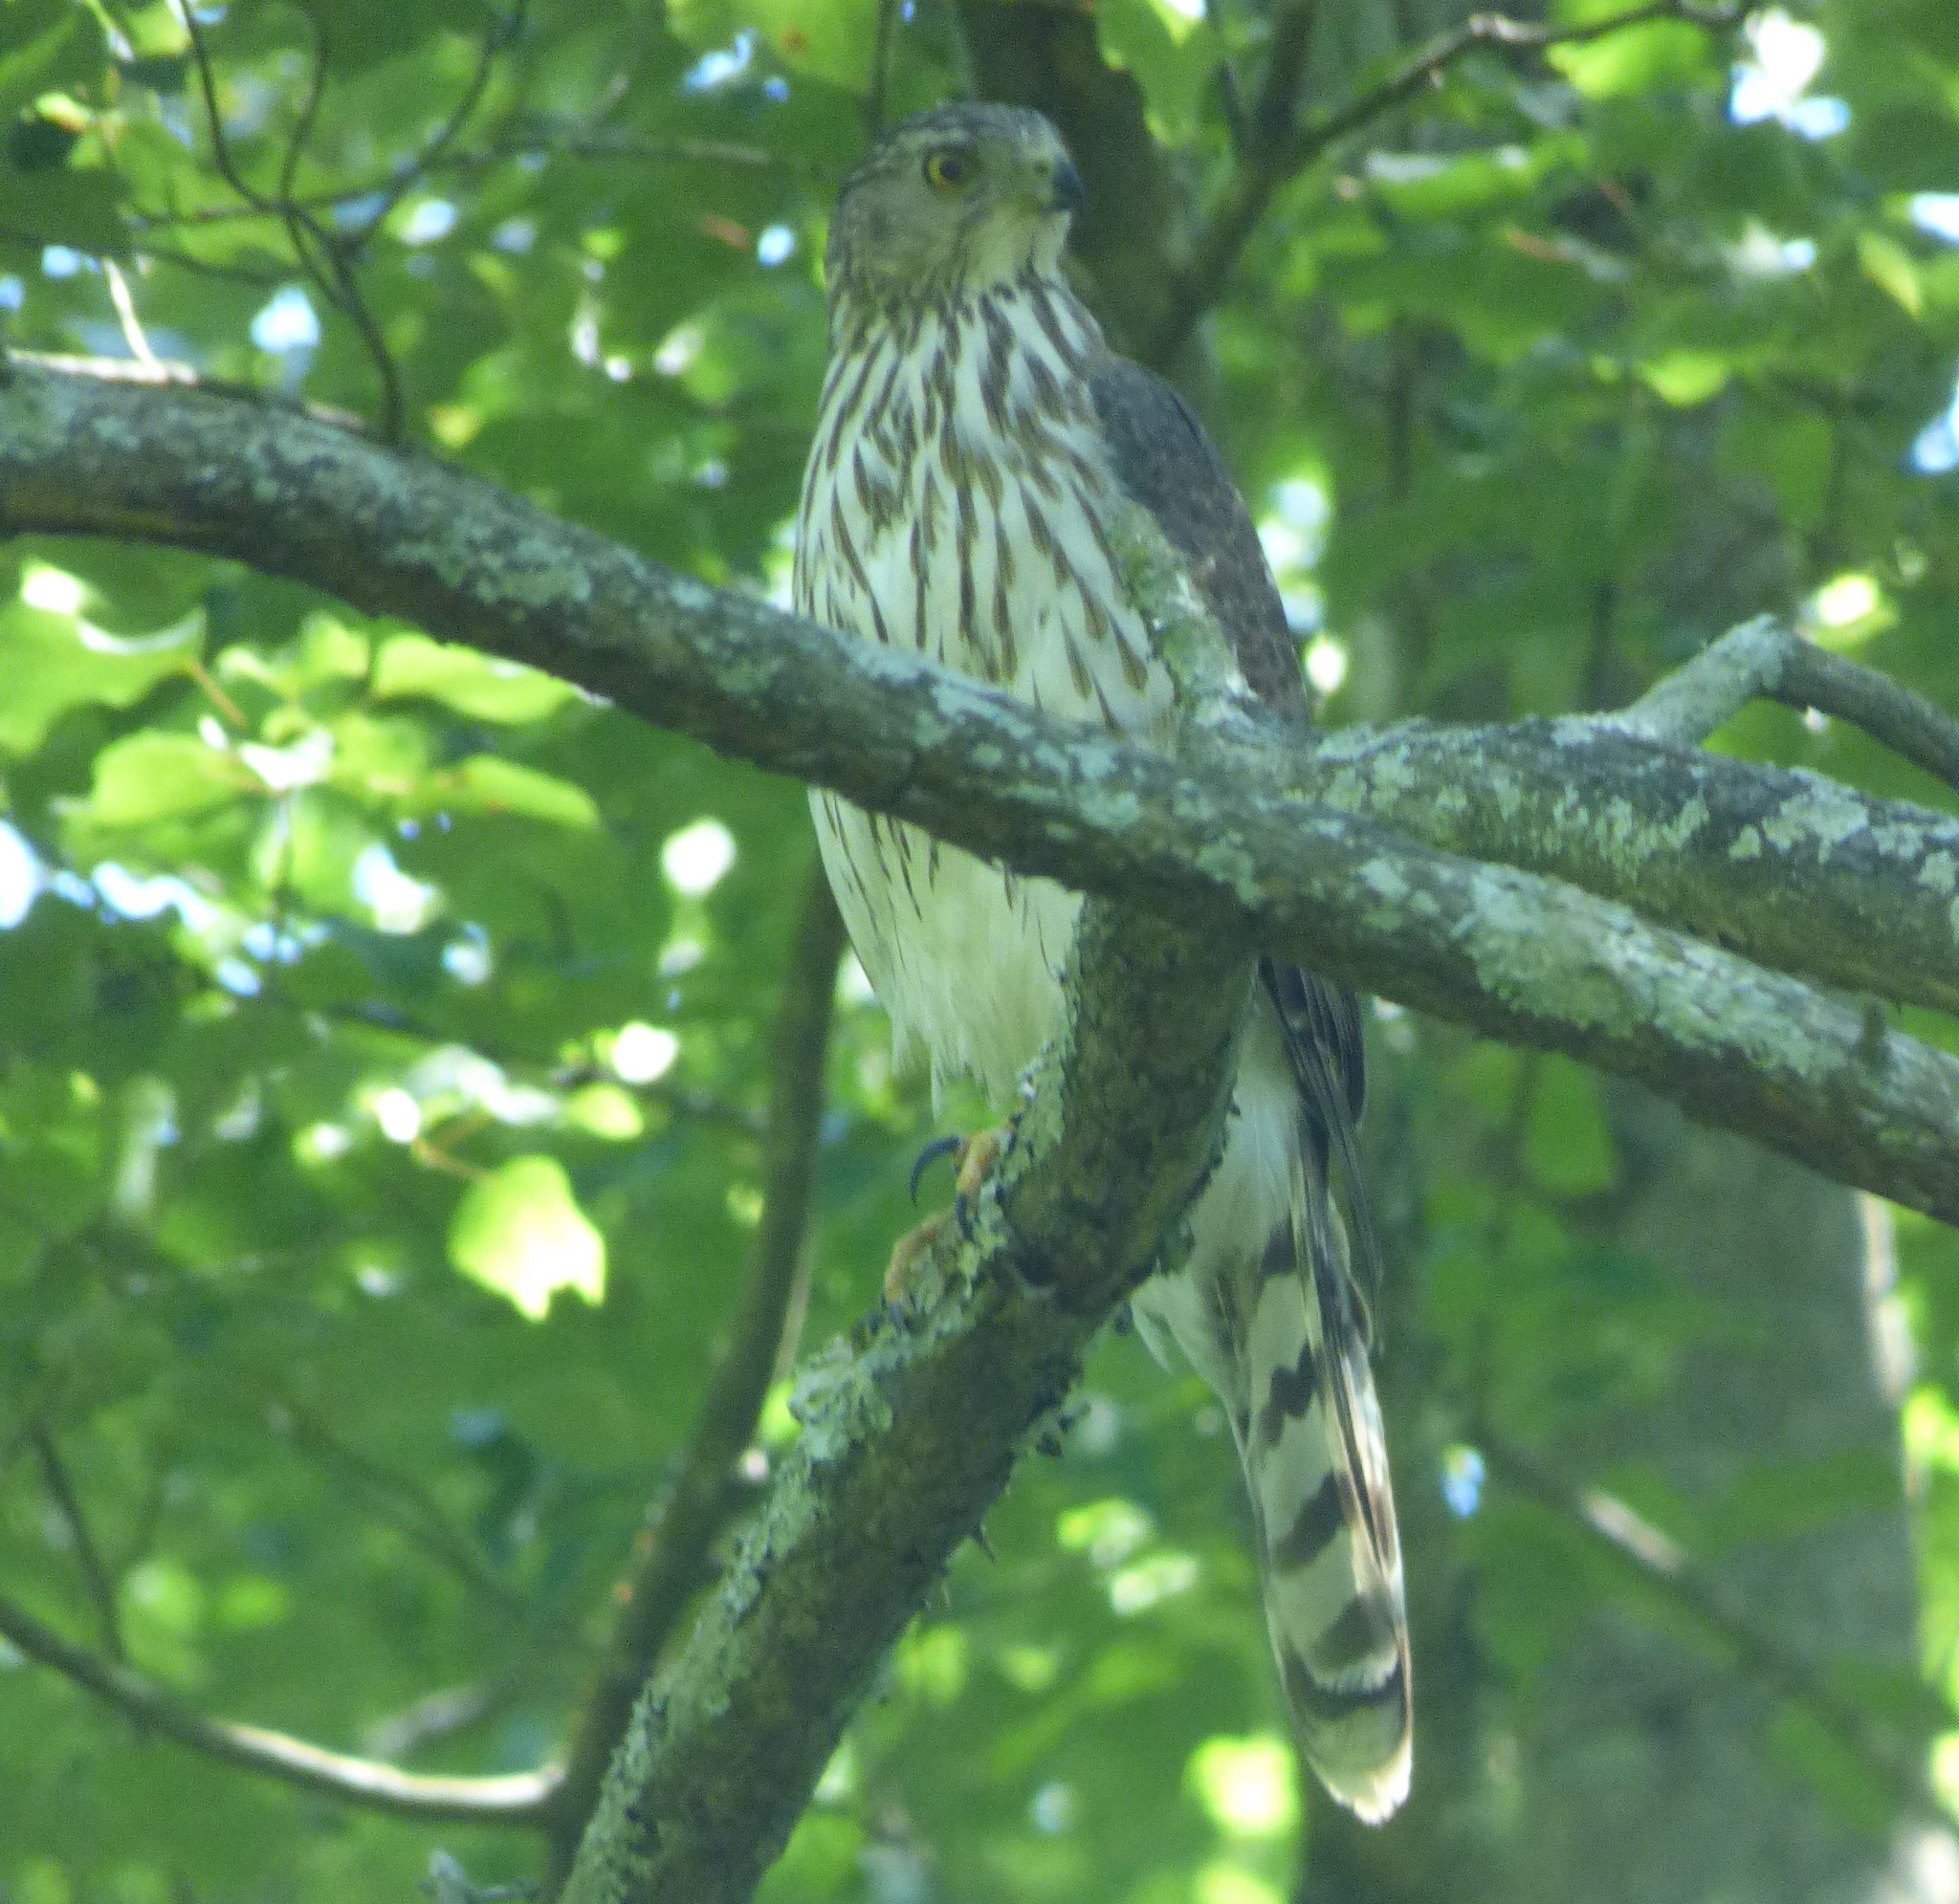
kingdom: Animalia
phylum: Chordata
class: Aves
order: Accipitriformes
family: Accipitridae
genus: Accipiter
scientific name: Accipiter cooperii
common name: Cooper's hawk
